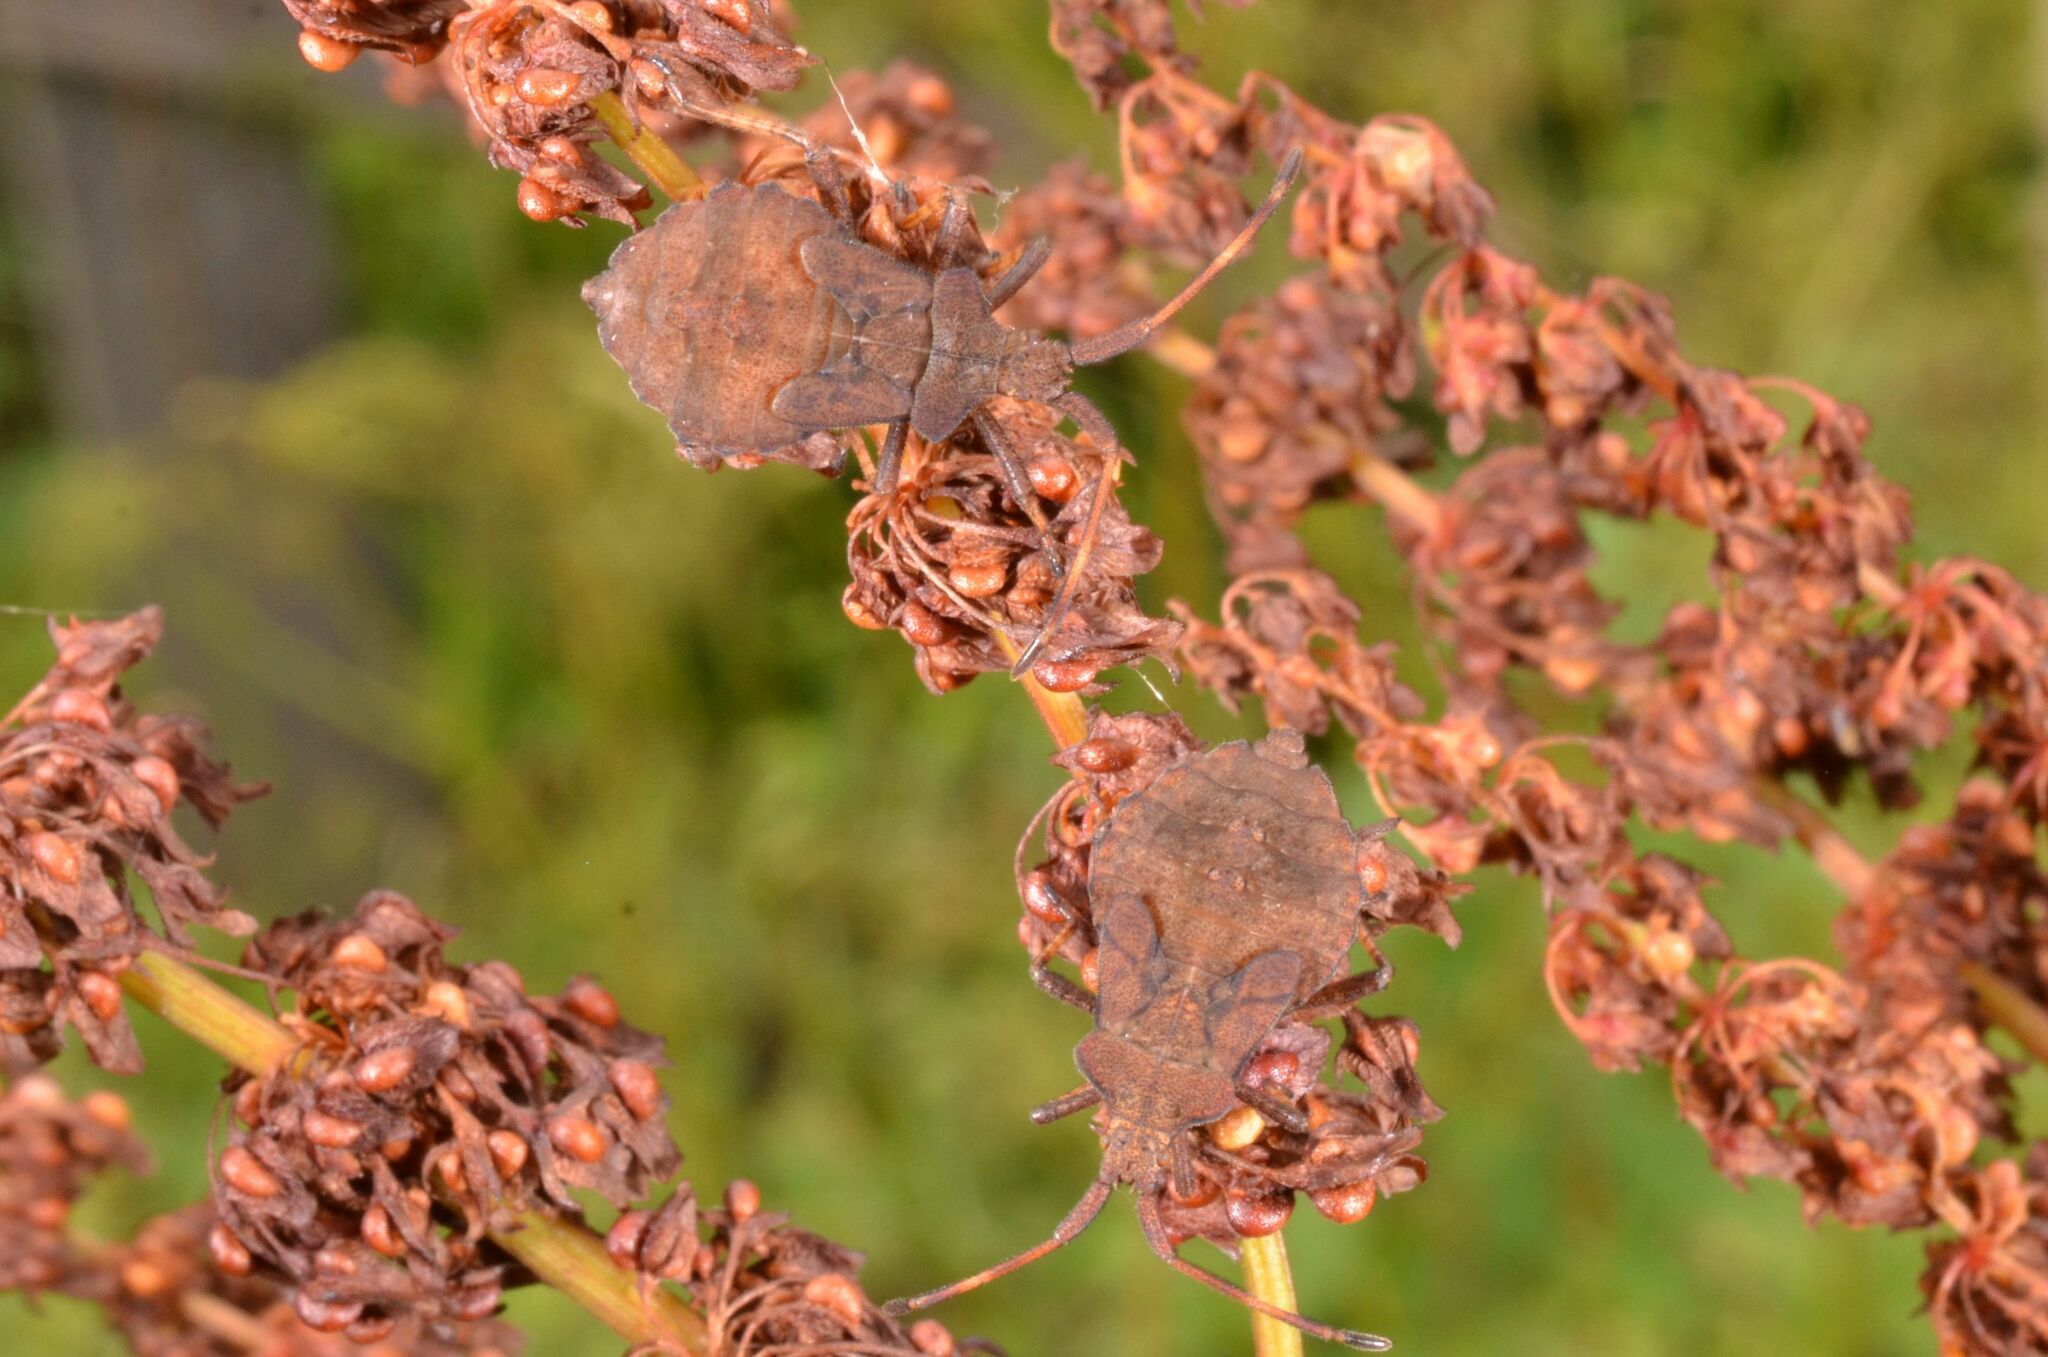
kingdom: Animalia
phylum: Arthropoda
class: Insecta
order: Hemiptera
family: Coreidae
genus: Coreus
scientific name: Coreus marginatus
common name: Dock bug
